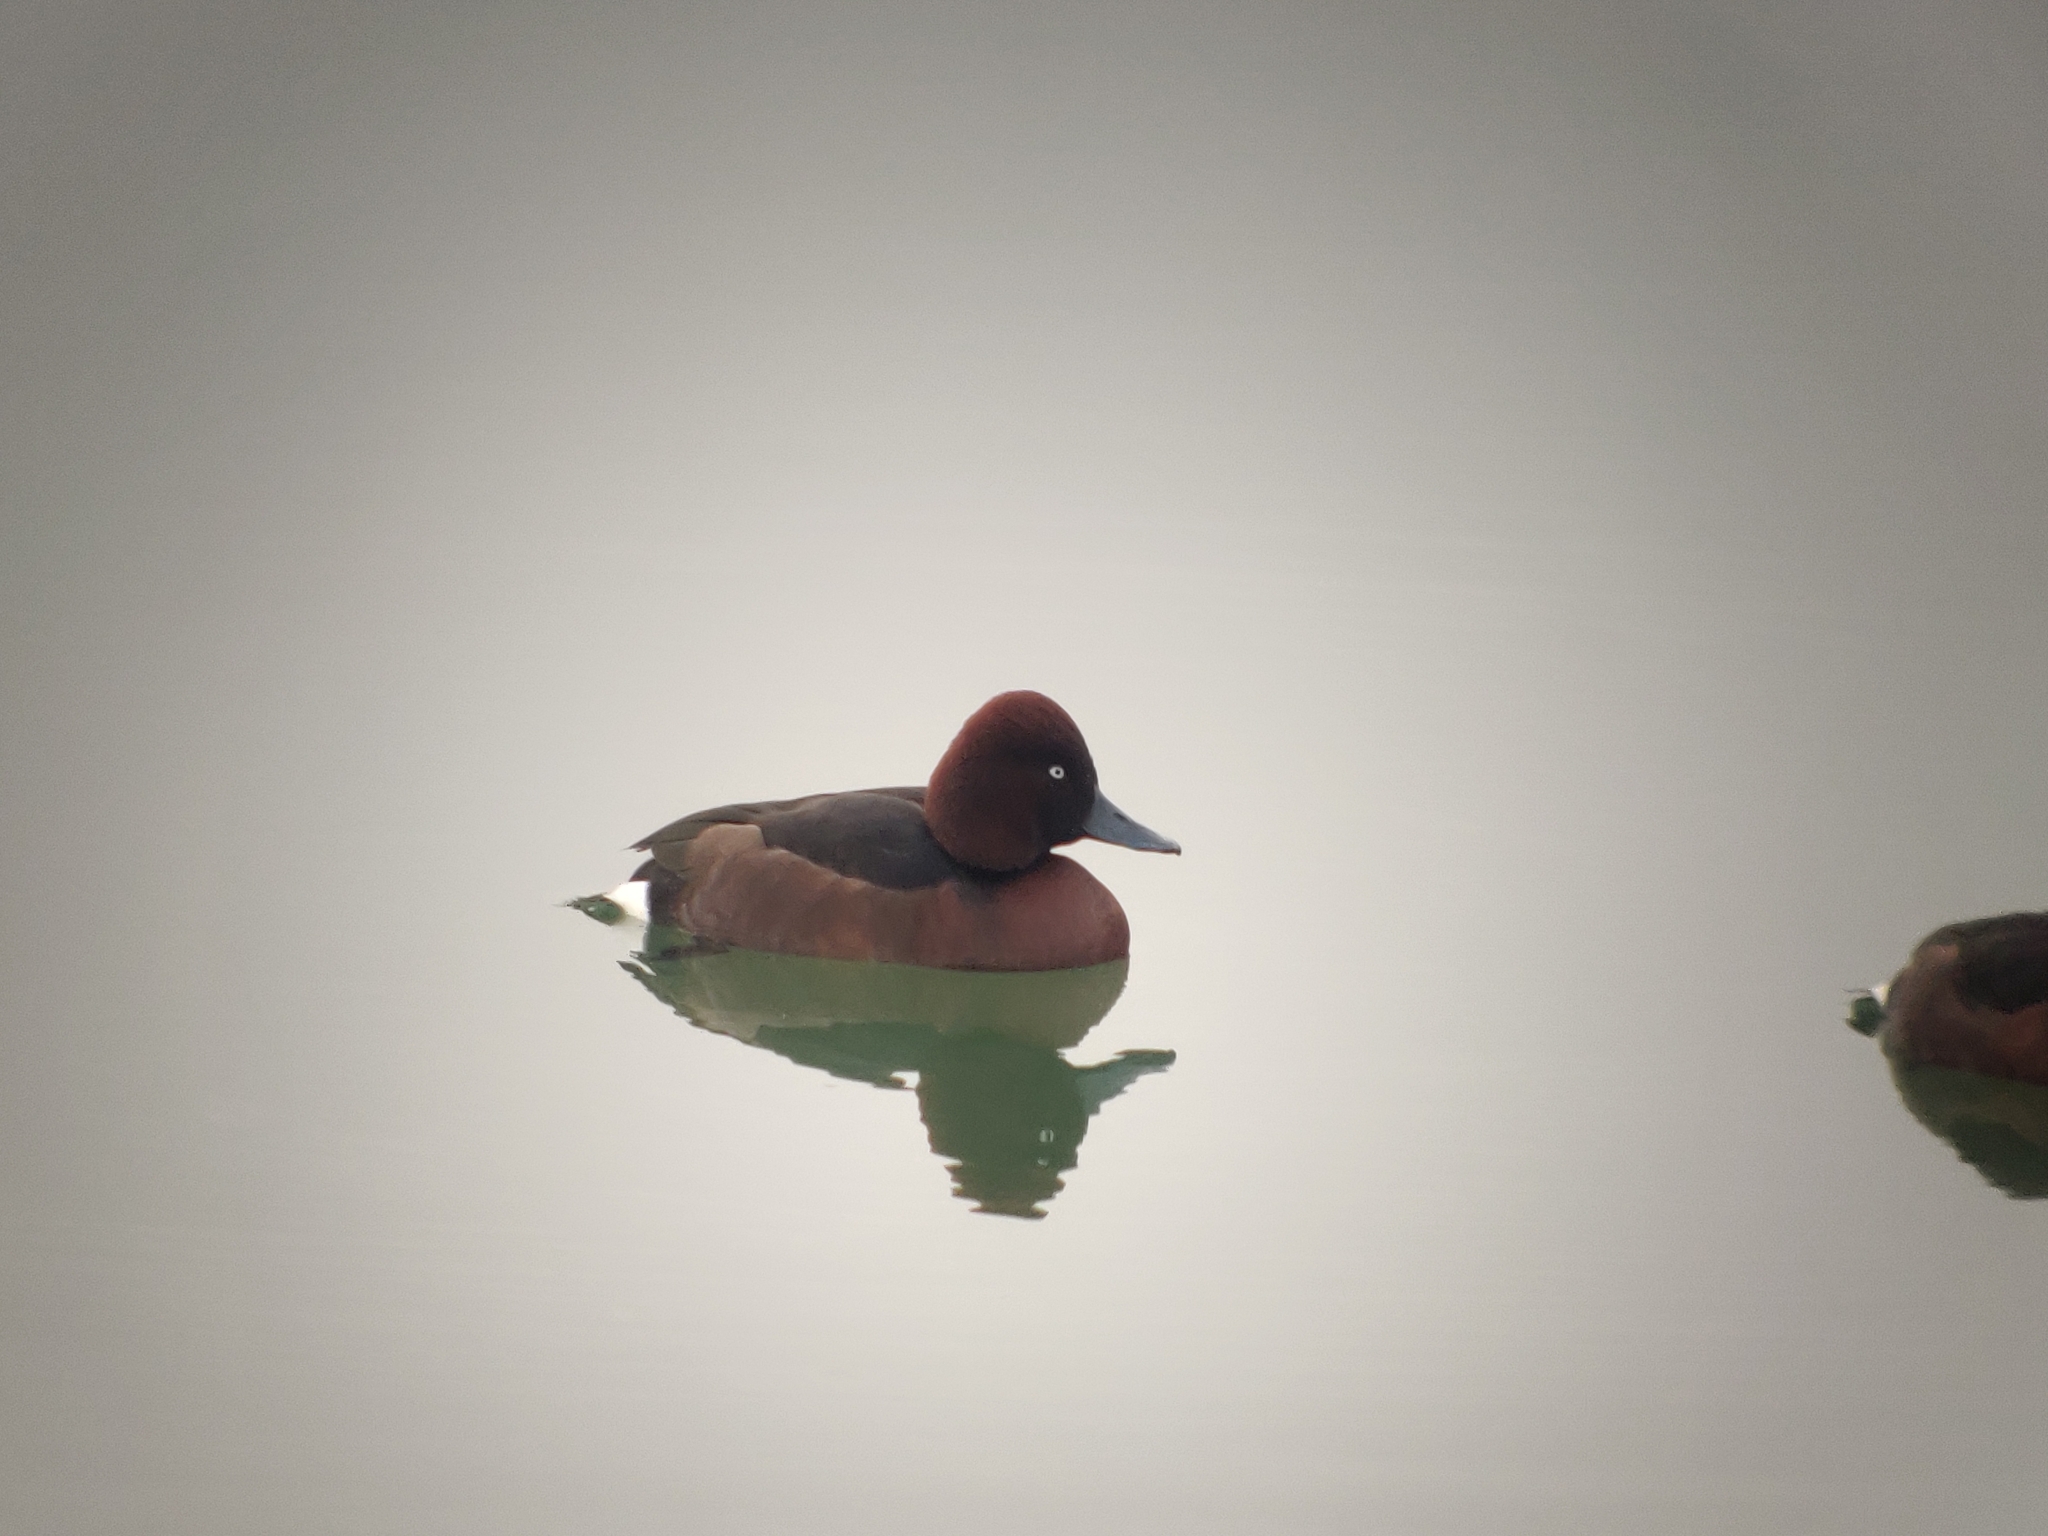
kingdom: Animalia
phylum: Chordata
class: Aves
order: Anseriformes
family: Anatidae
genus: Aythya
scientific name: Aythya nyroca
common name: Ferruginous duck
